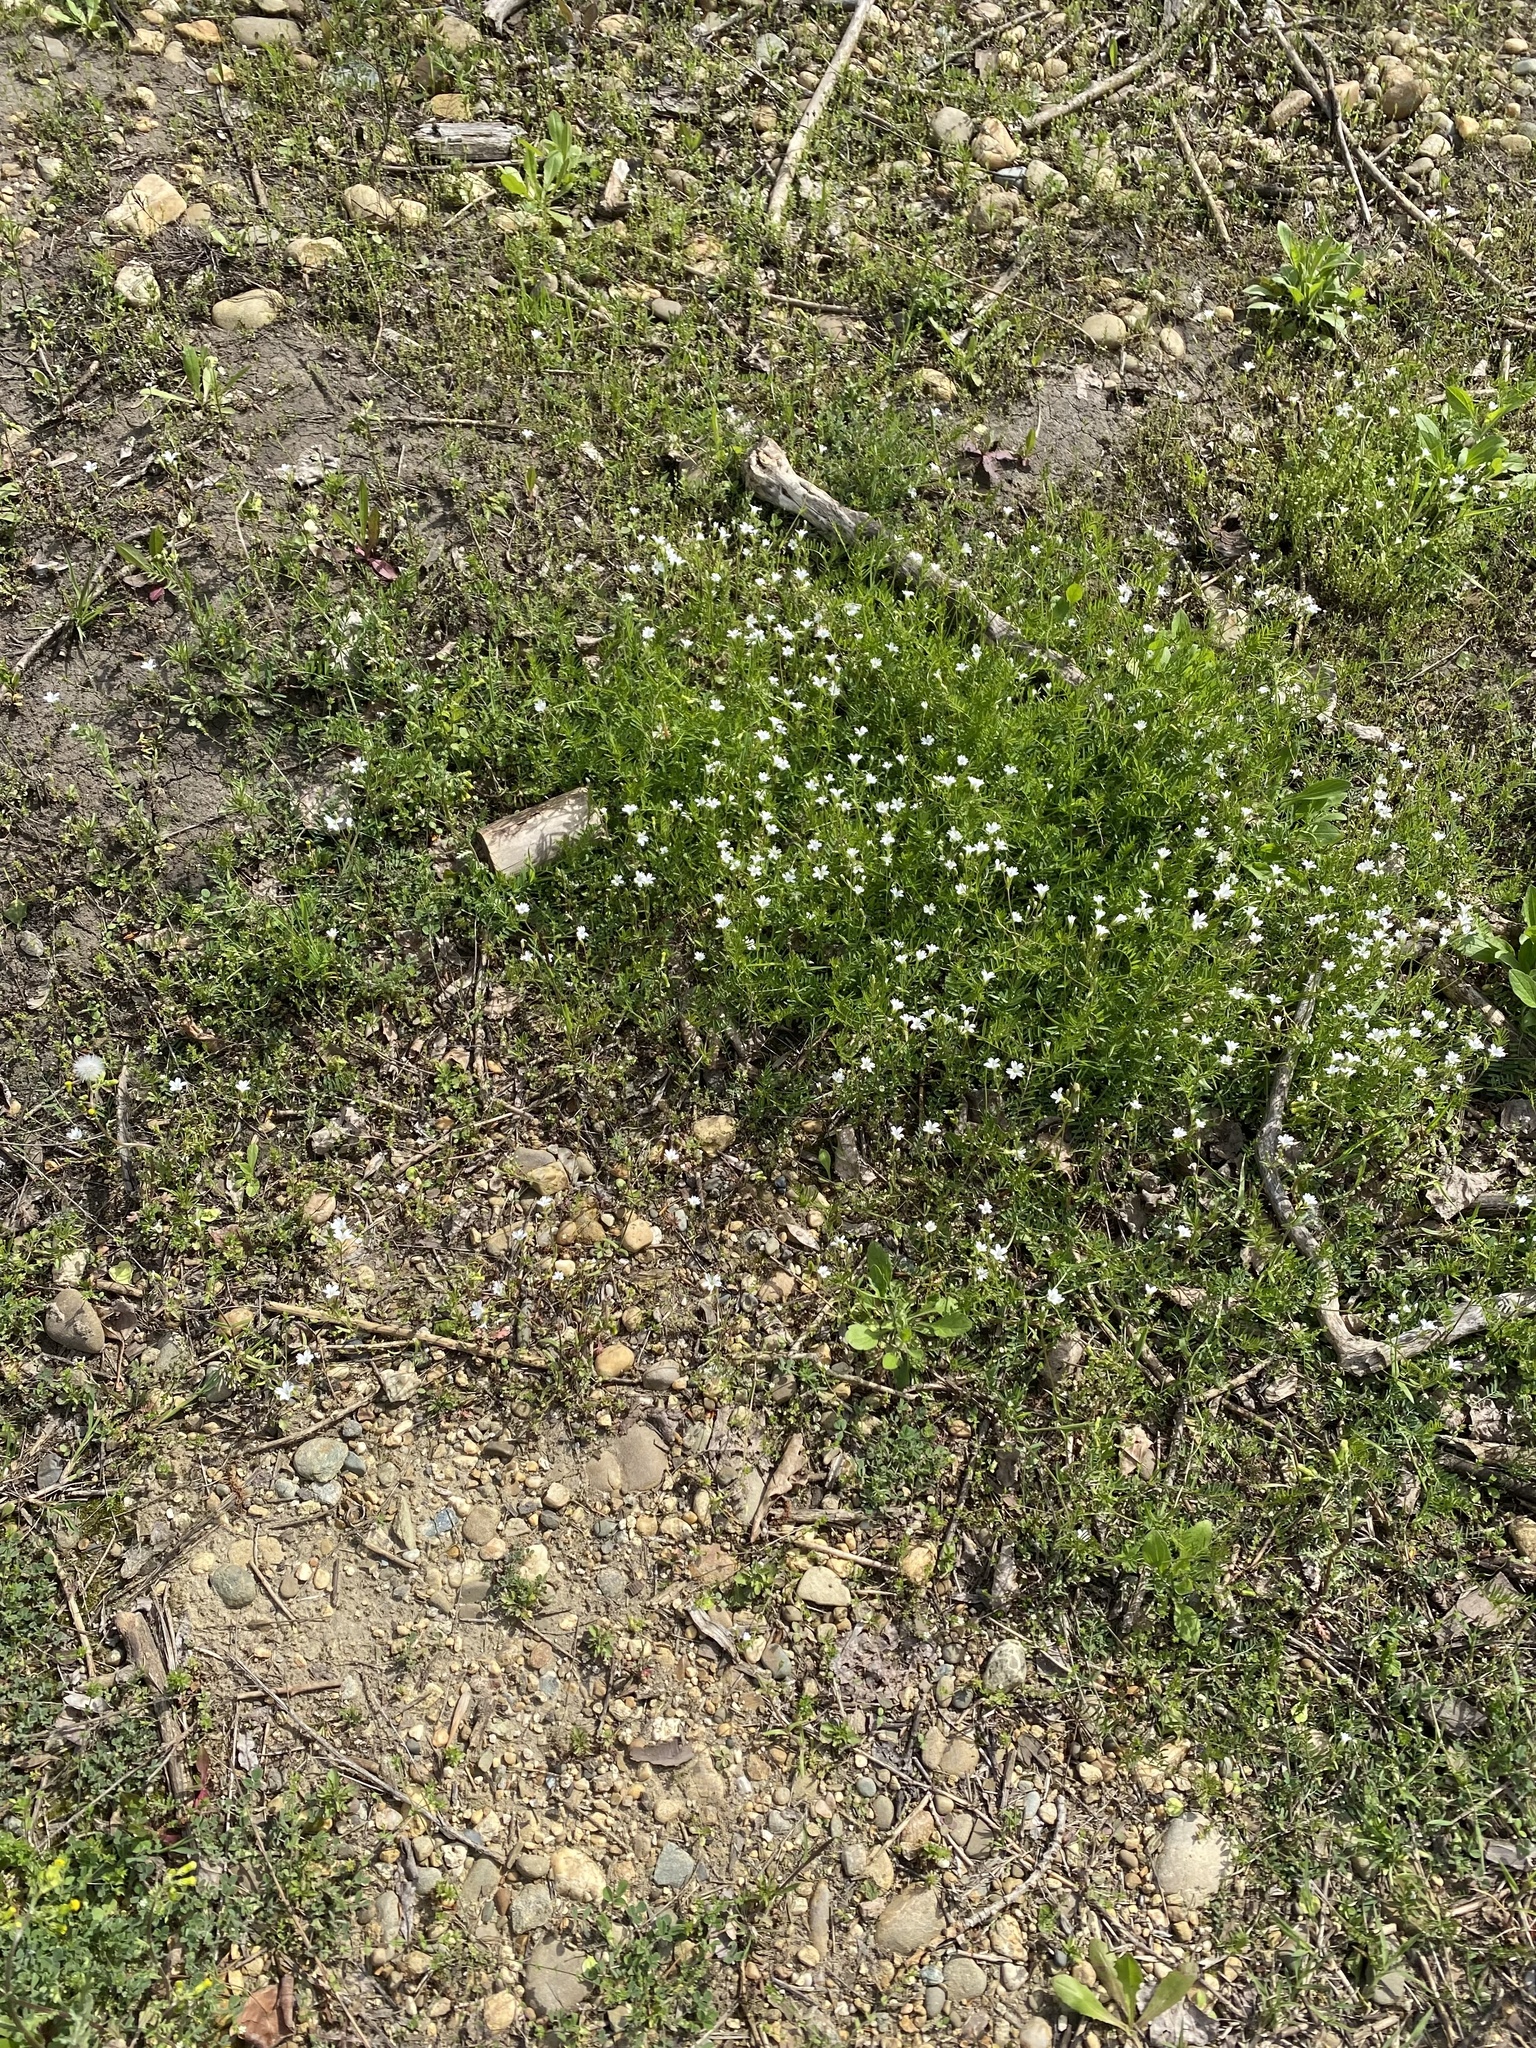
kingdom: Plantae
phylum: Tracheophyta
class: Magnoliopsida
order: Caryophyllales
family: Caryophyllaceae
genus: Dichodon
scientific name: Dichodon viscidum
